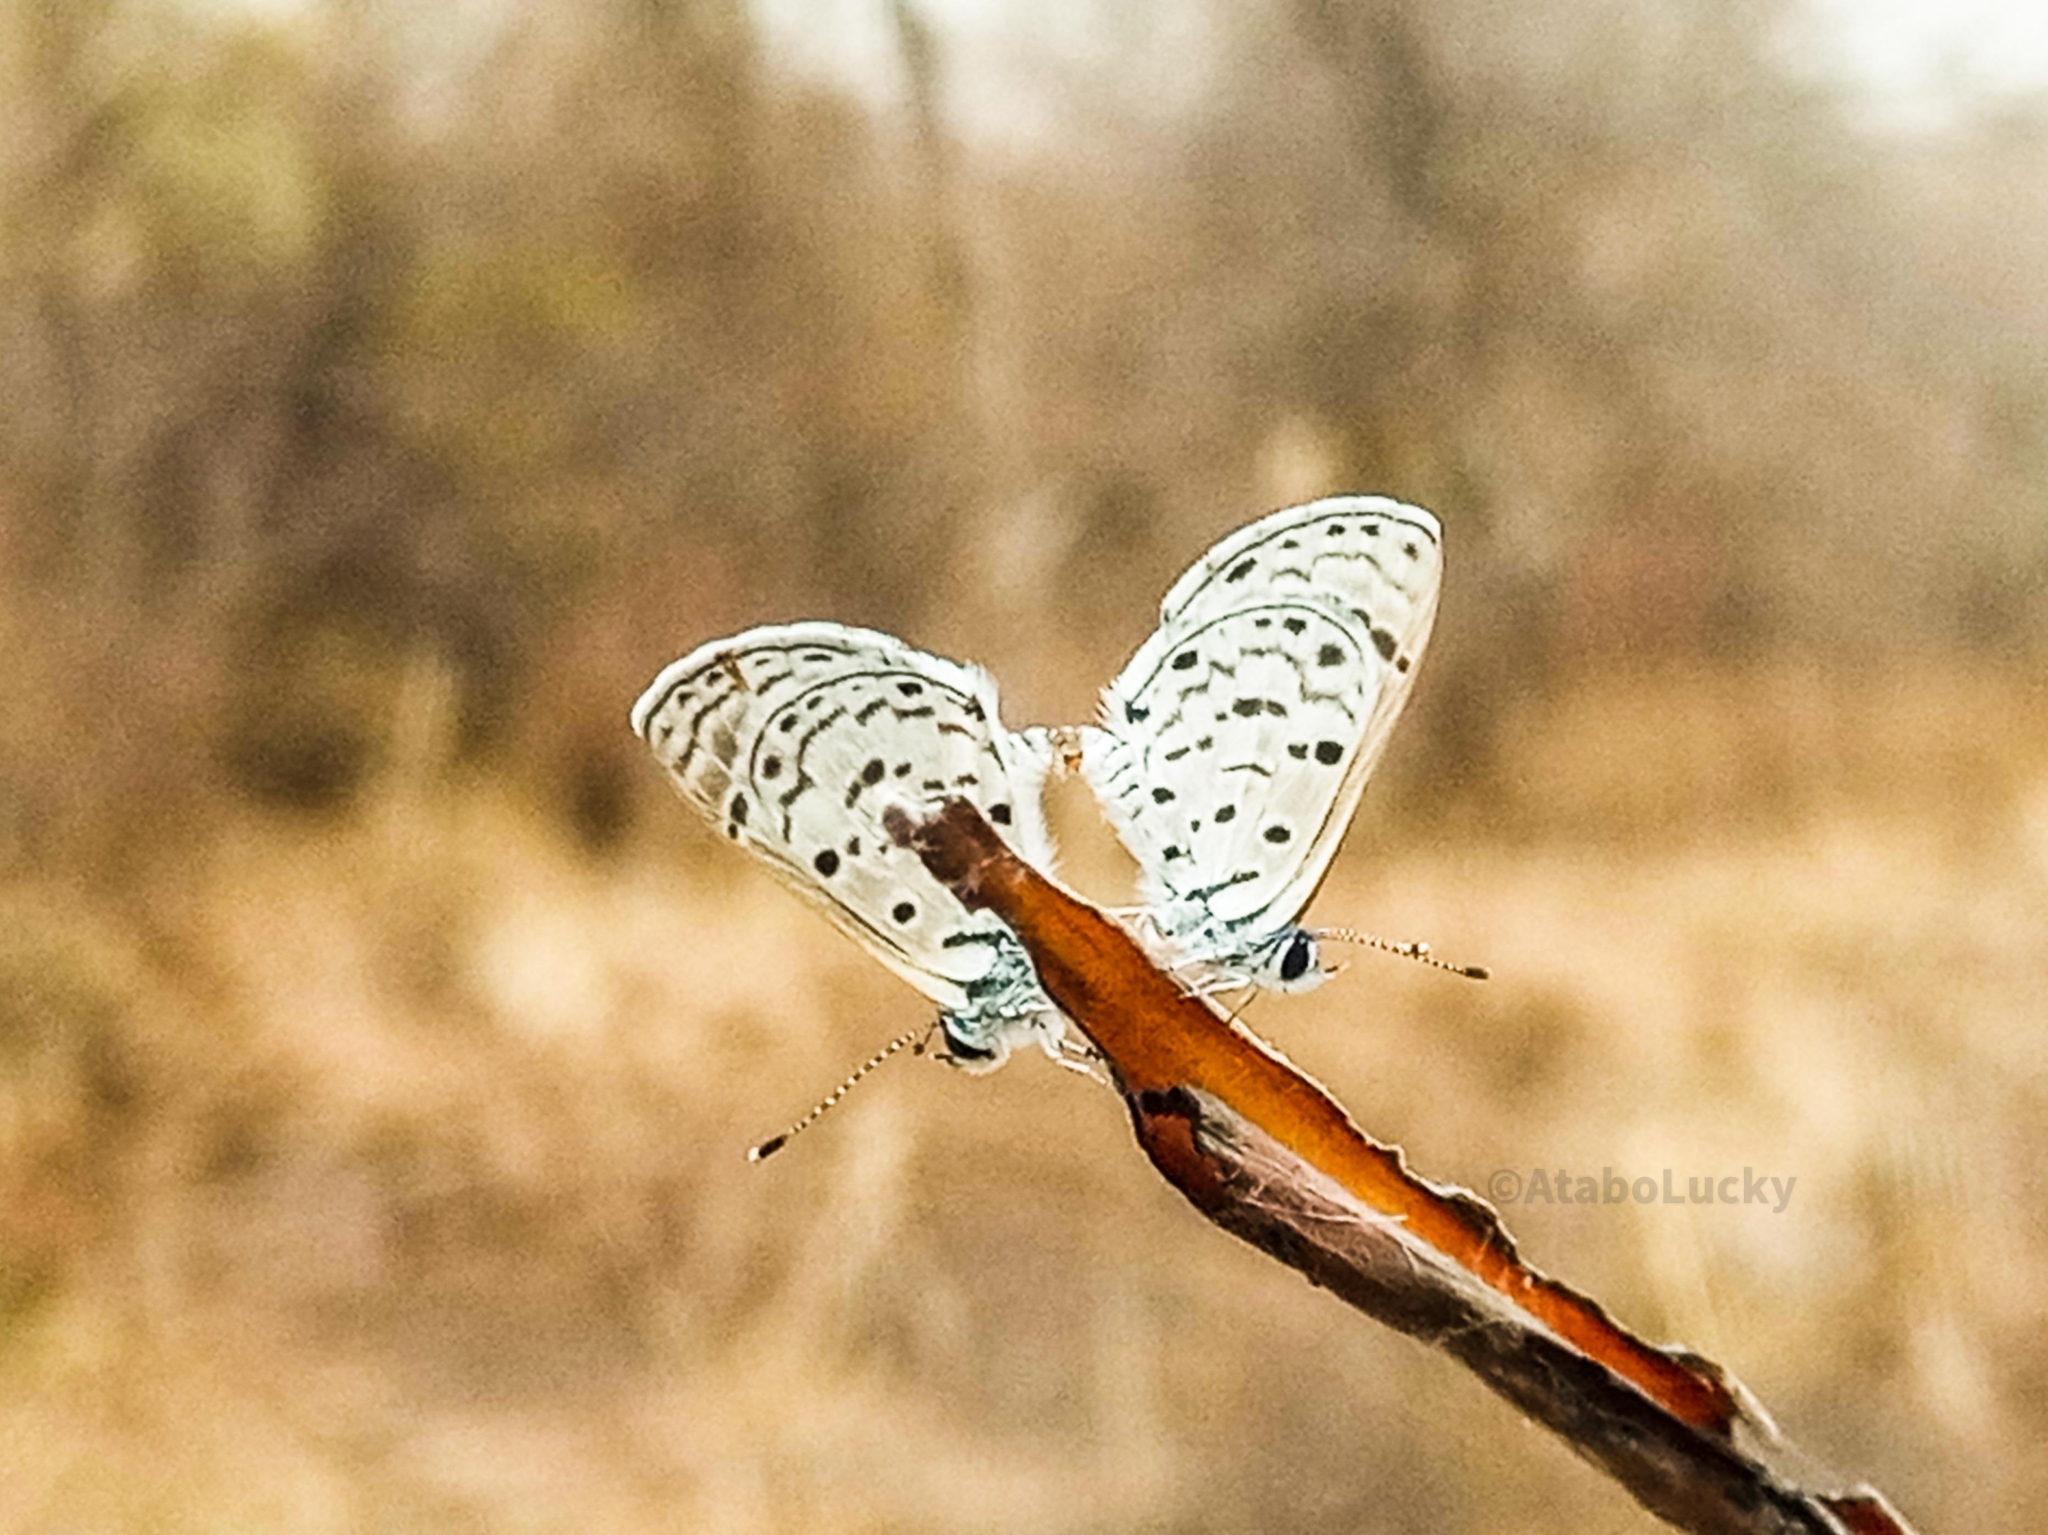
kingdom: Animalia
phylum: Arthropoda
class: Insecta
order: Lepidoptera
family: Lycaenidae
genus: Azanus
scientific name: Azanus moriqua
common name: Thorn-tree babul blue
